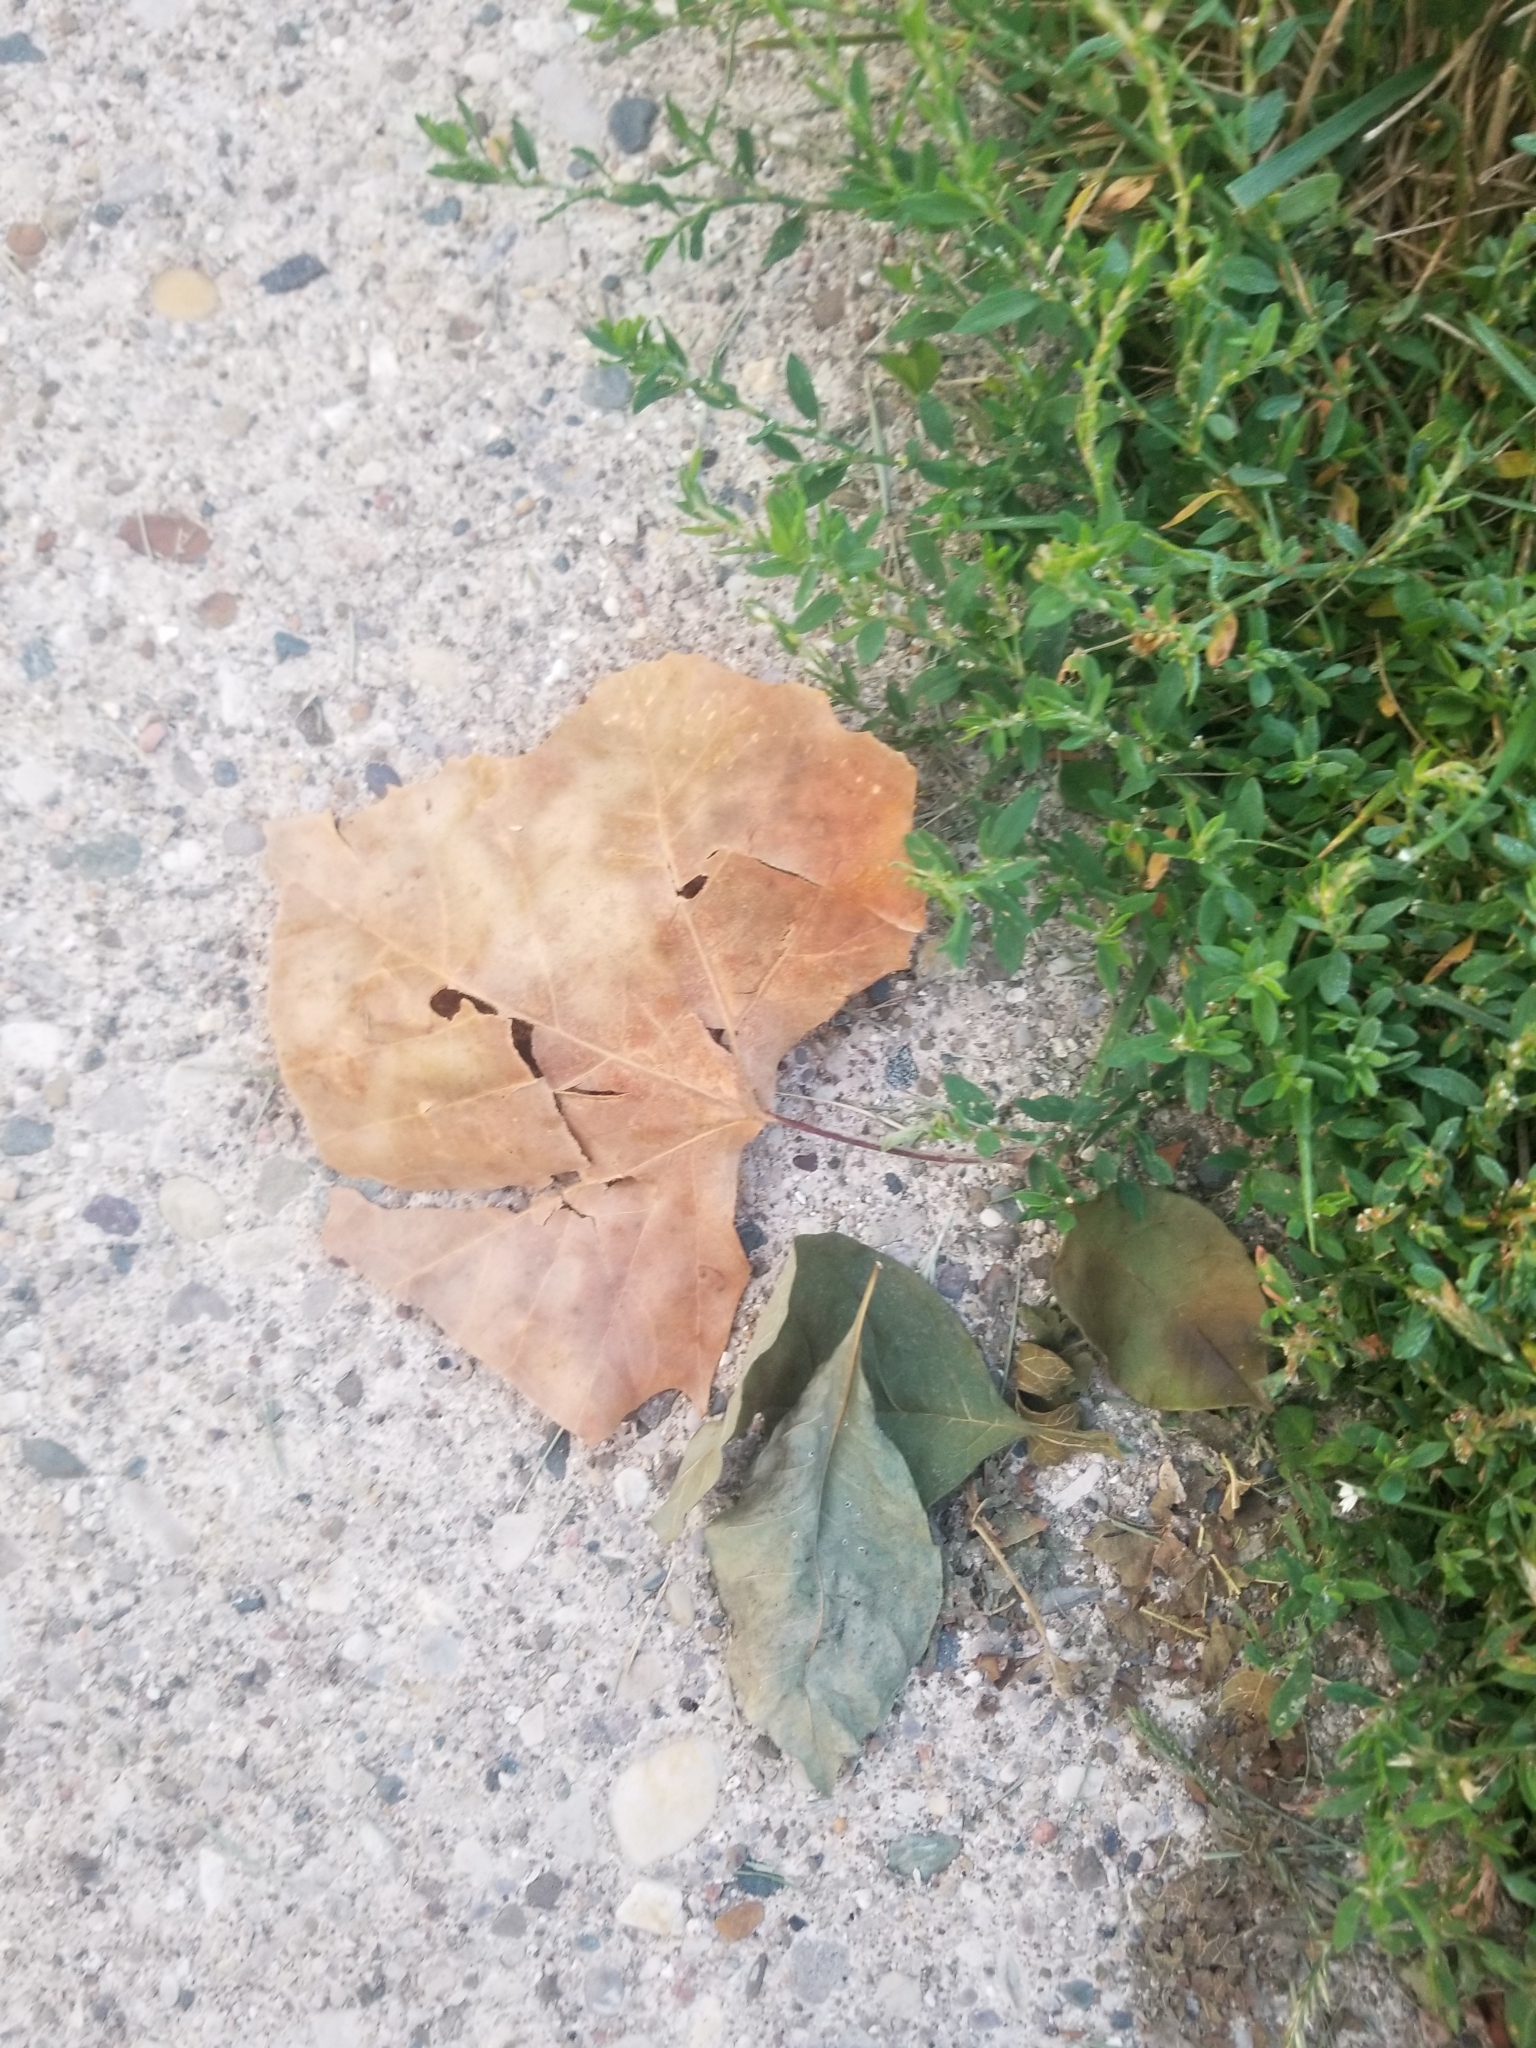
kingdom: Plantae
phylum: Tracheophyta
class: Magnoliopsida
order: Proteales
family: Platanaceae
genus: Platanus
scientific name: Platanus occidentalis
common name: American sycamore
